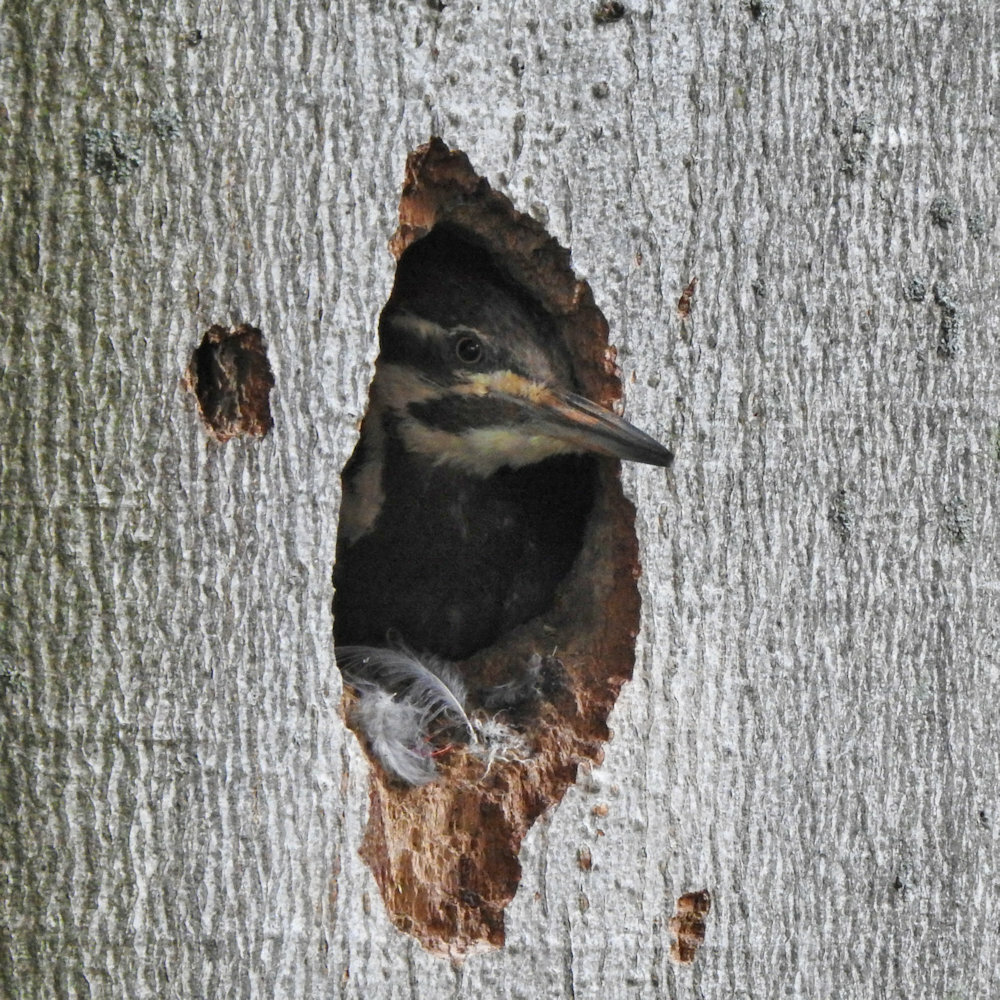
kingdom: Animalia
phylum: Chordata
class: Aves
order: Piciformes
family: Picidae
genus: Dryocopus
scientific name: Dryocopus pileatus
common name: Pileated woodpecker
